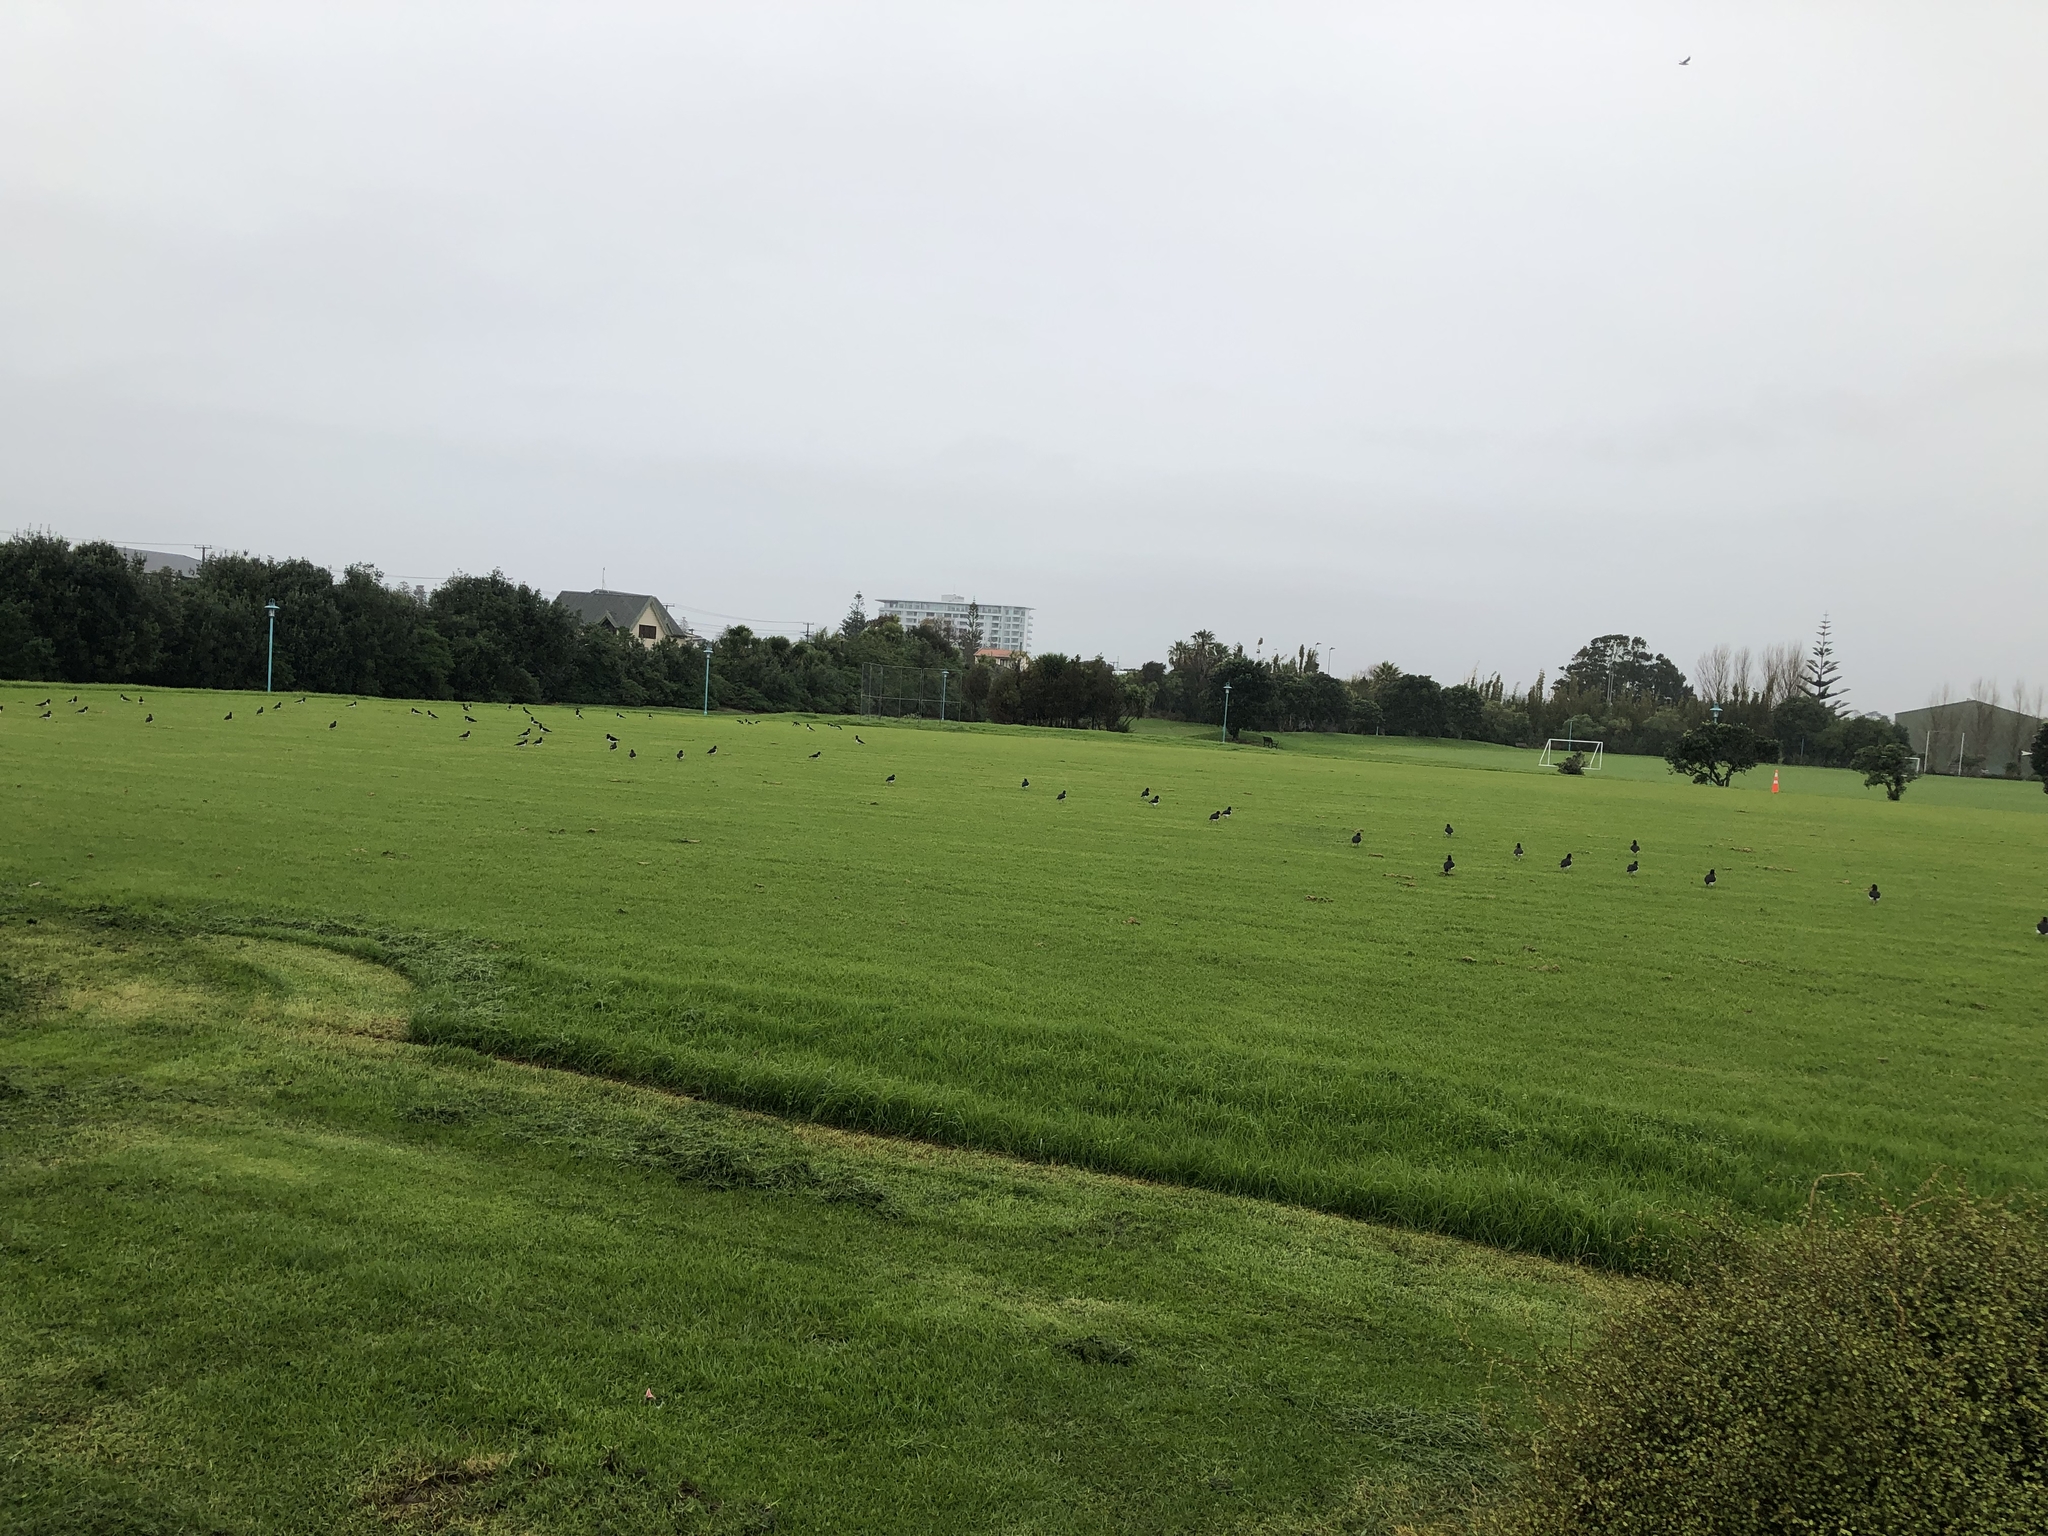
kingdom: Animalia
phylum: Chordata
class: Aves
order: Charadriiformes
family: Haematopodidae
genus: Haematopus
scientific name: Haematopus finschi
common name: South island oystercatcher
